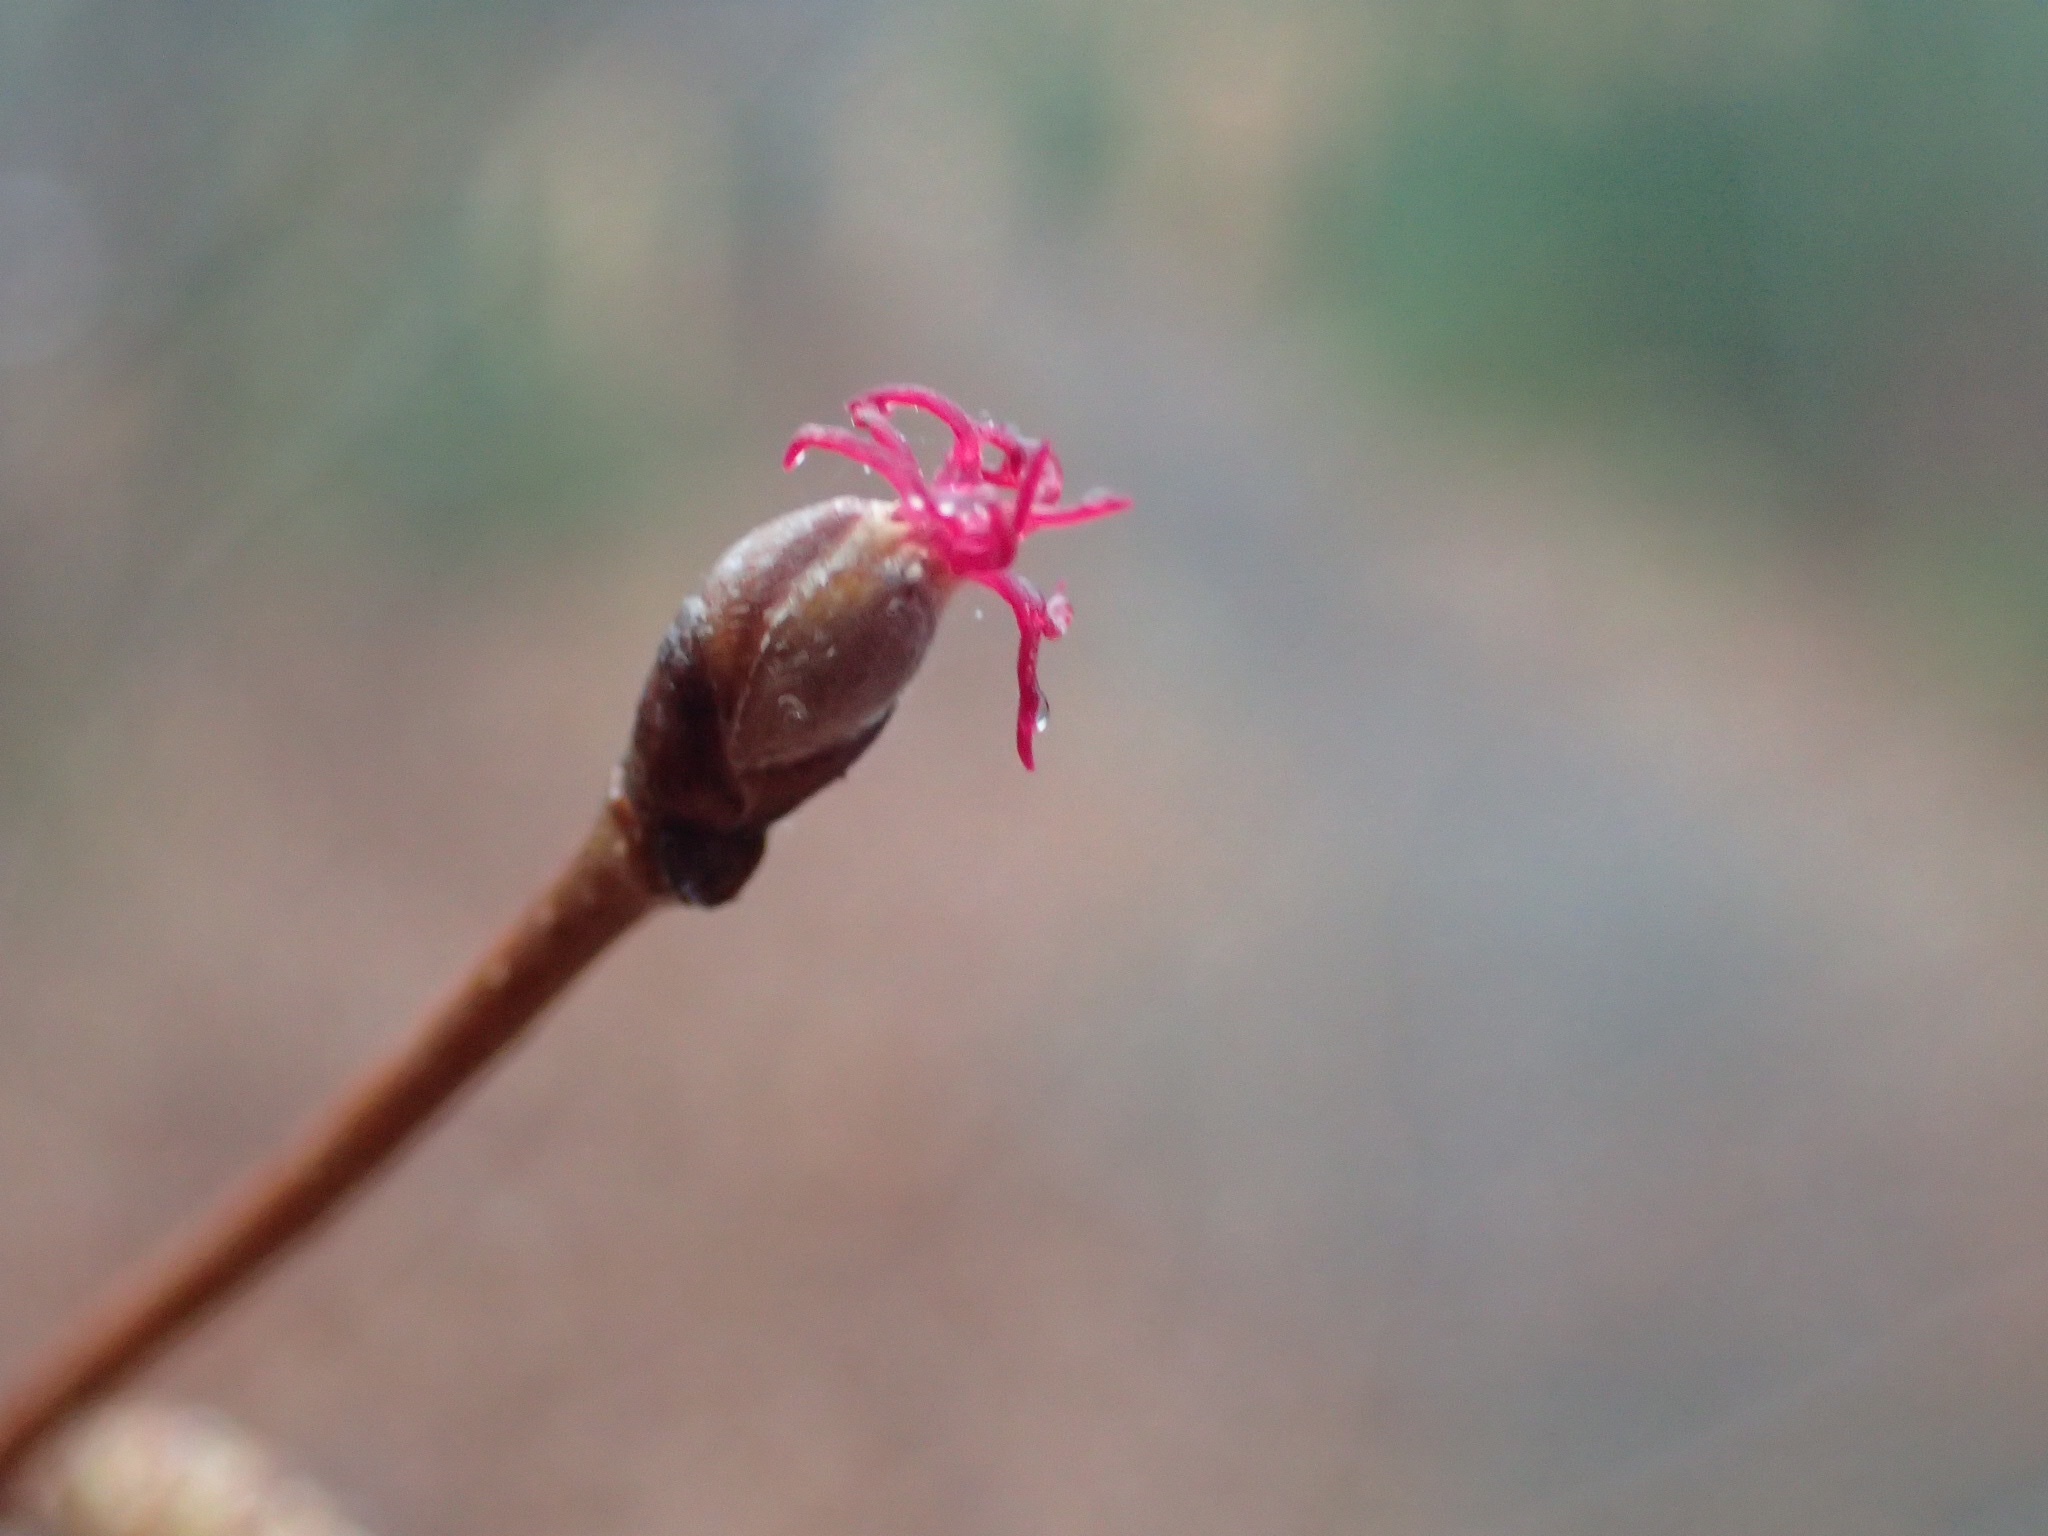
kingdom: Plantae
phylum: Tracheophyta
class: Magnoliopsida
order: Fagales
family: Betulaceae
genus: Corylus
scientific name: Corylus cornuta
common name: Beaked hazel
